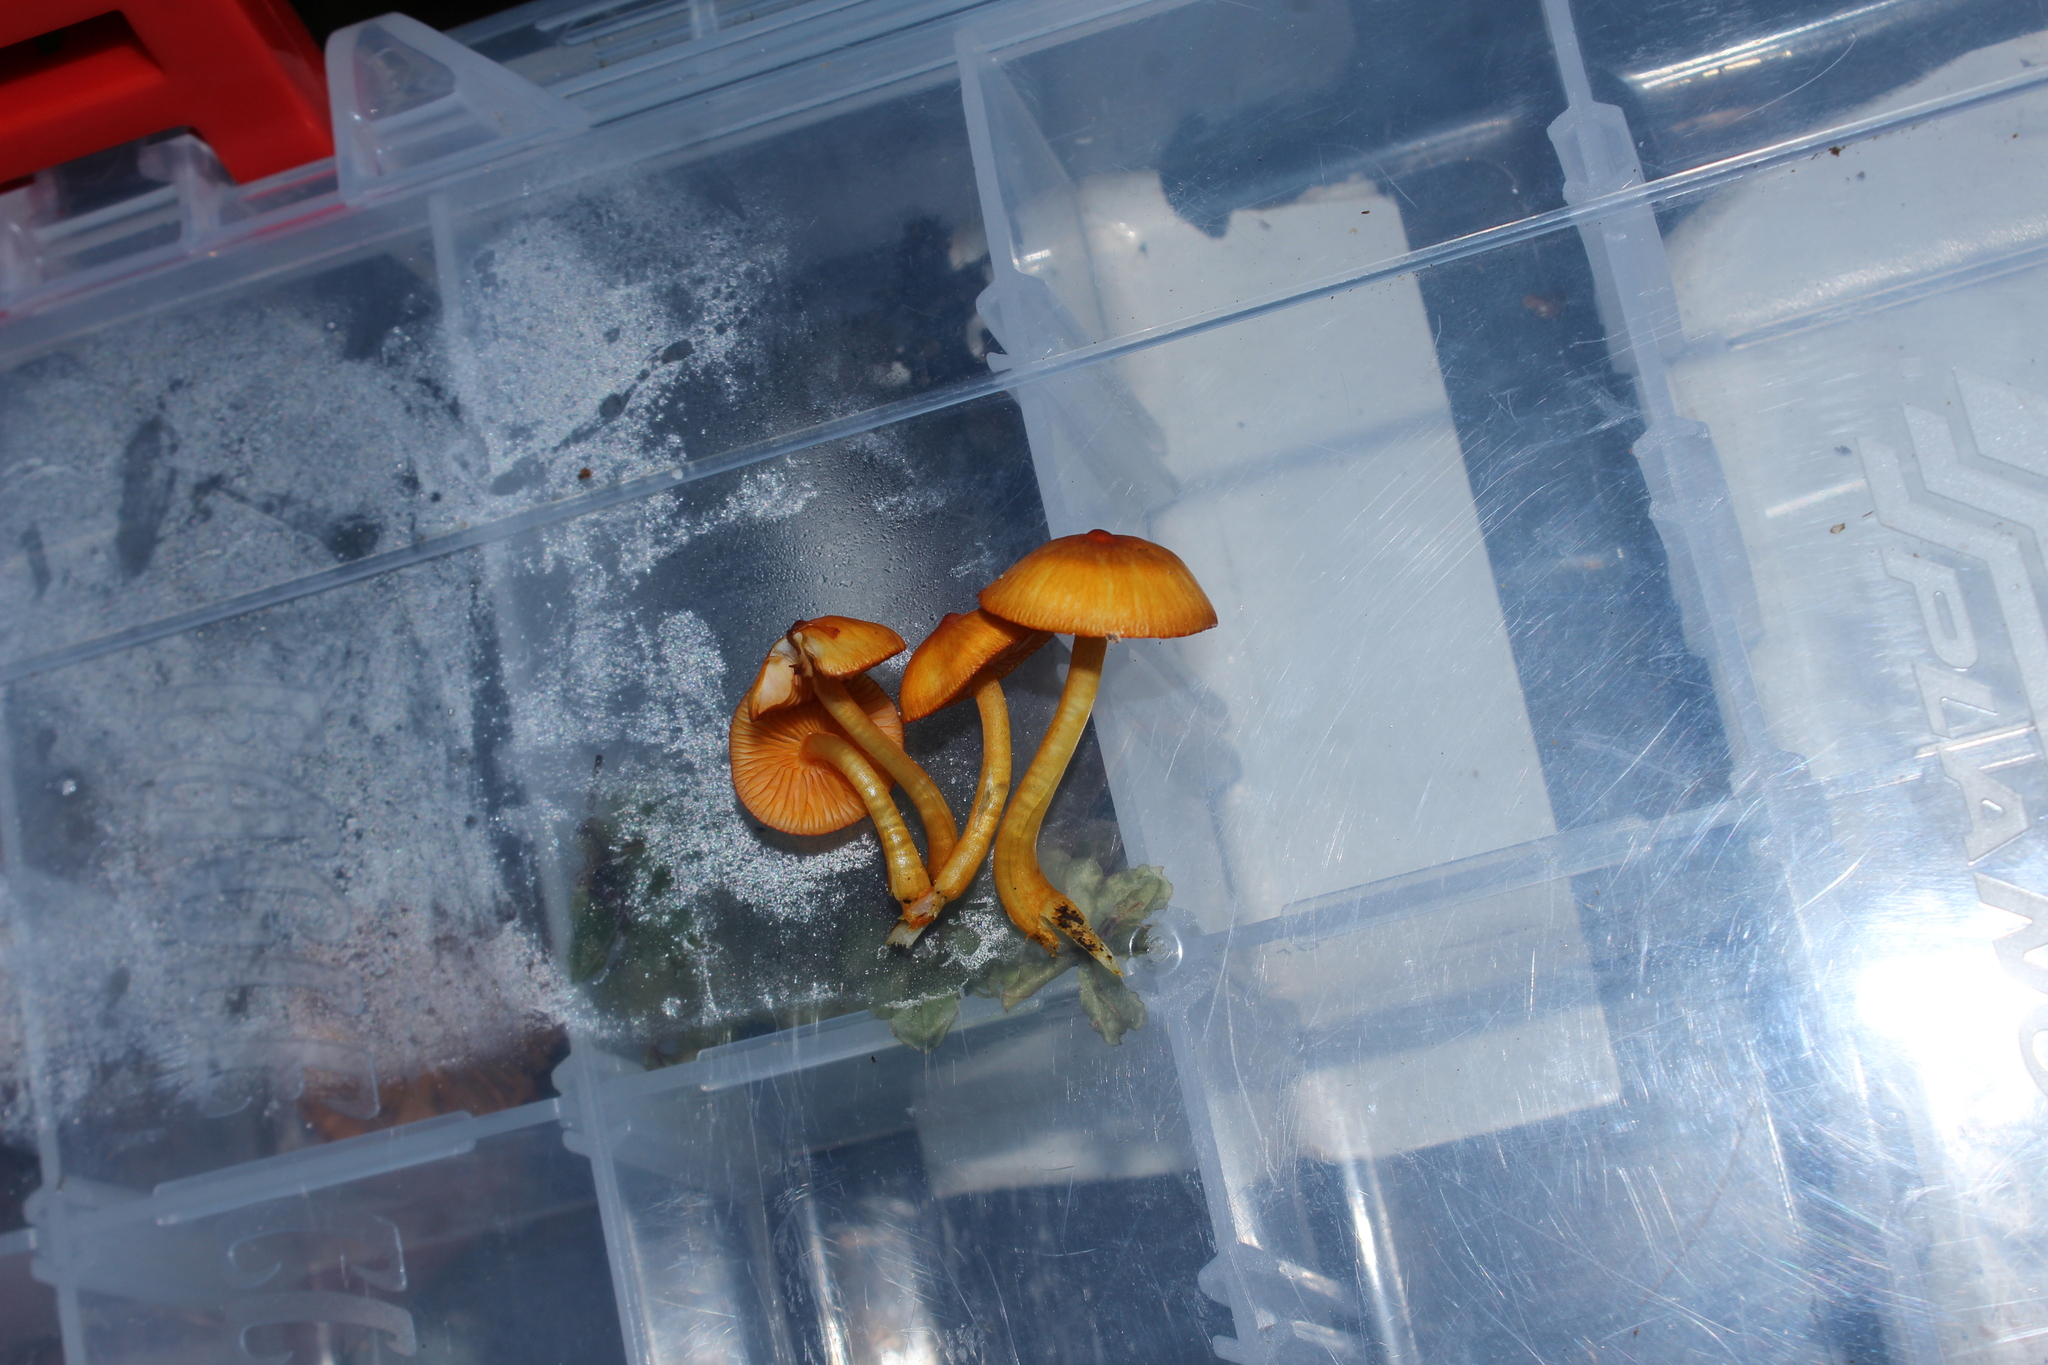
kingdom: Fungi
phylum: Basidiomycota
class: Agaricomycetes
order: Agaricales
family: Mycenaceae
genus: Mycena
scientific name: Mycena leaiana
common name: Orange mycena
